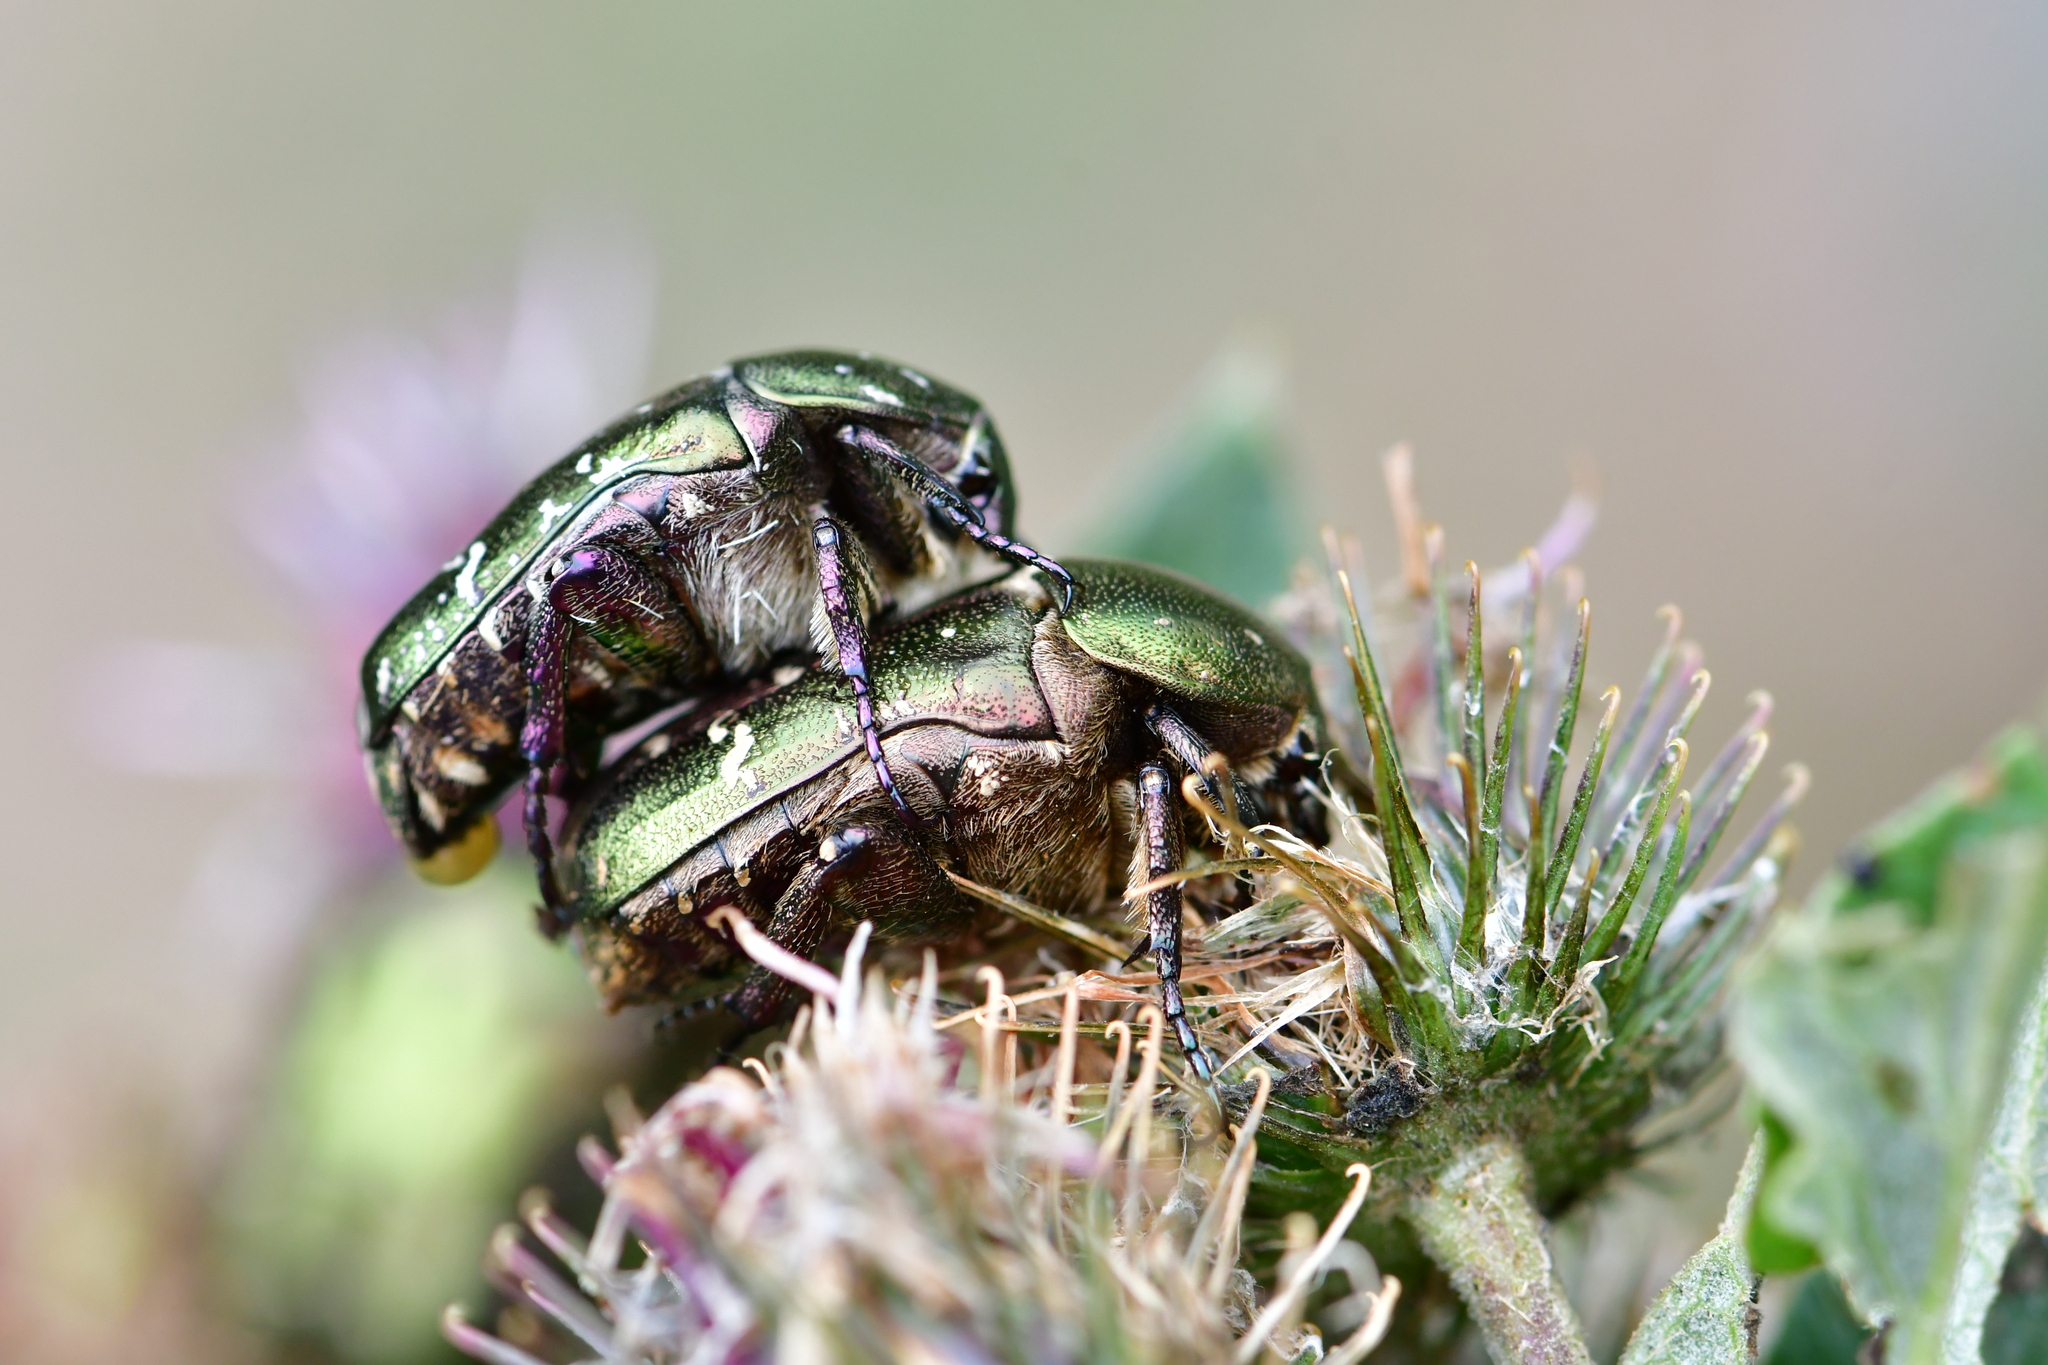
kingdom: Animalia
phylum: Arthropoda
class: Insecta
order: Coleoptera
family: Scarabaeidae
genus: Protaetia
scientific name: Protaetia cuprea
